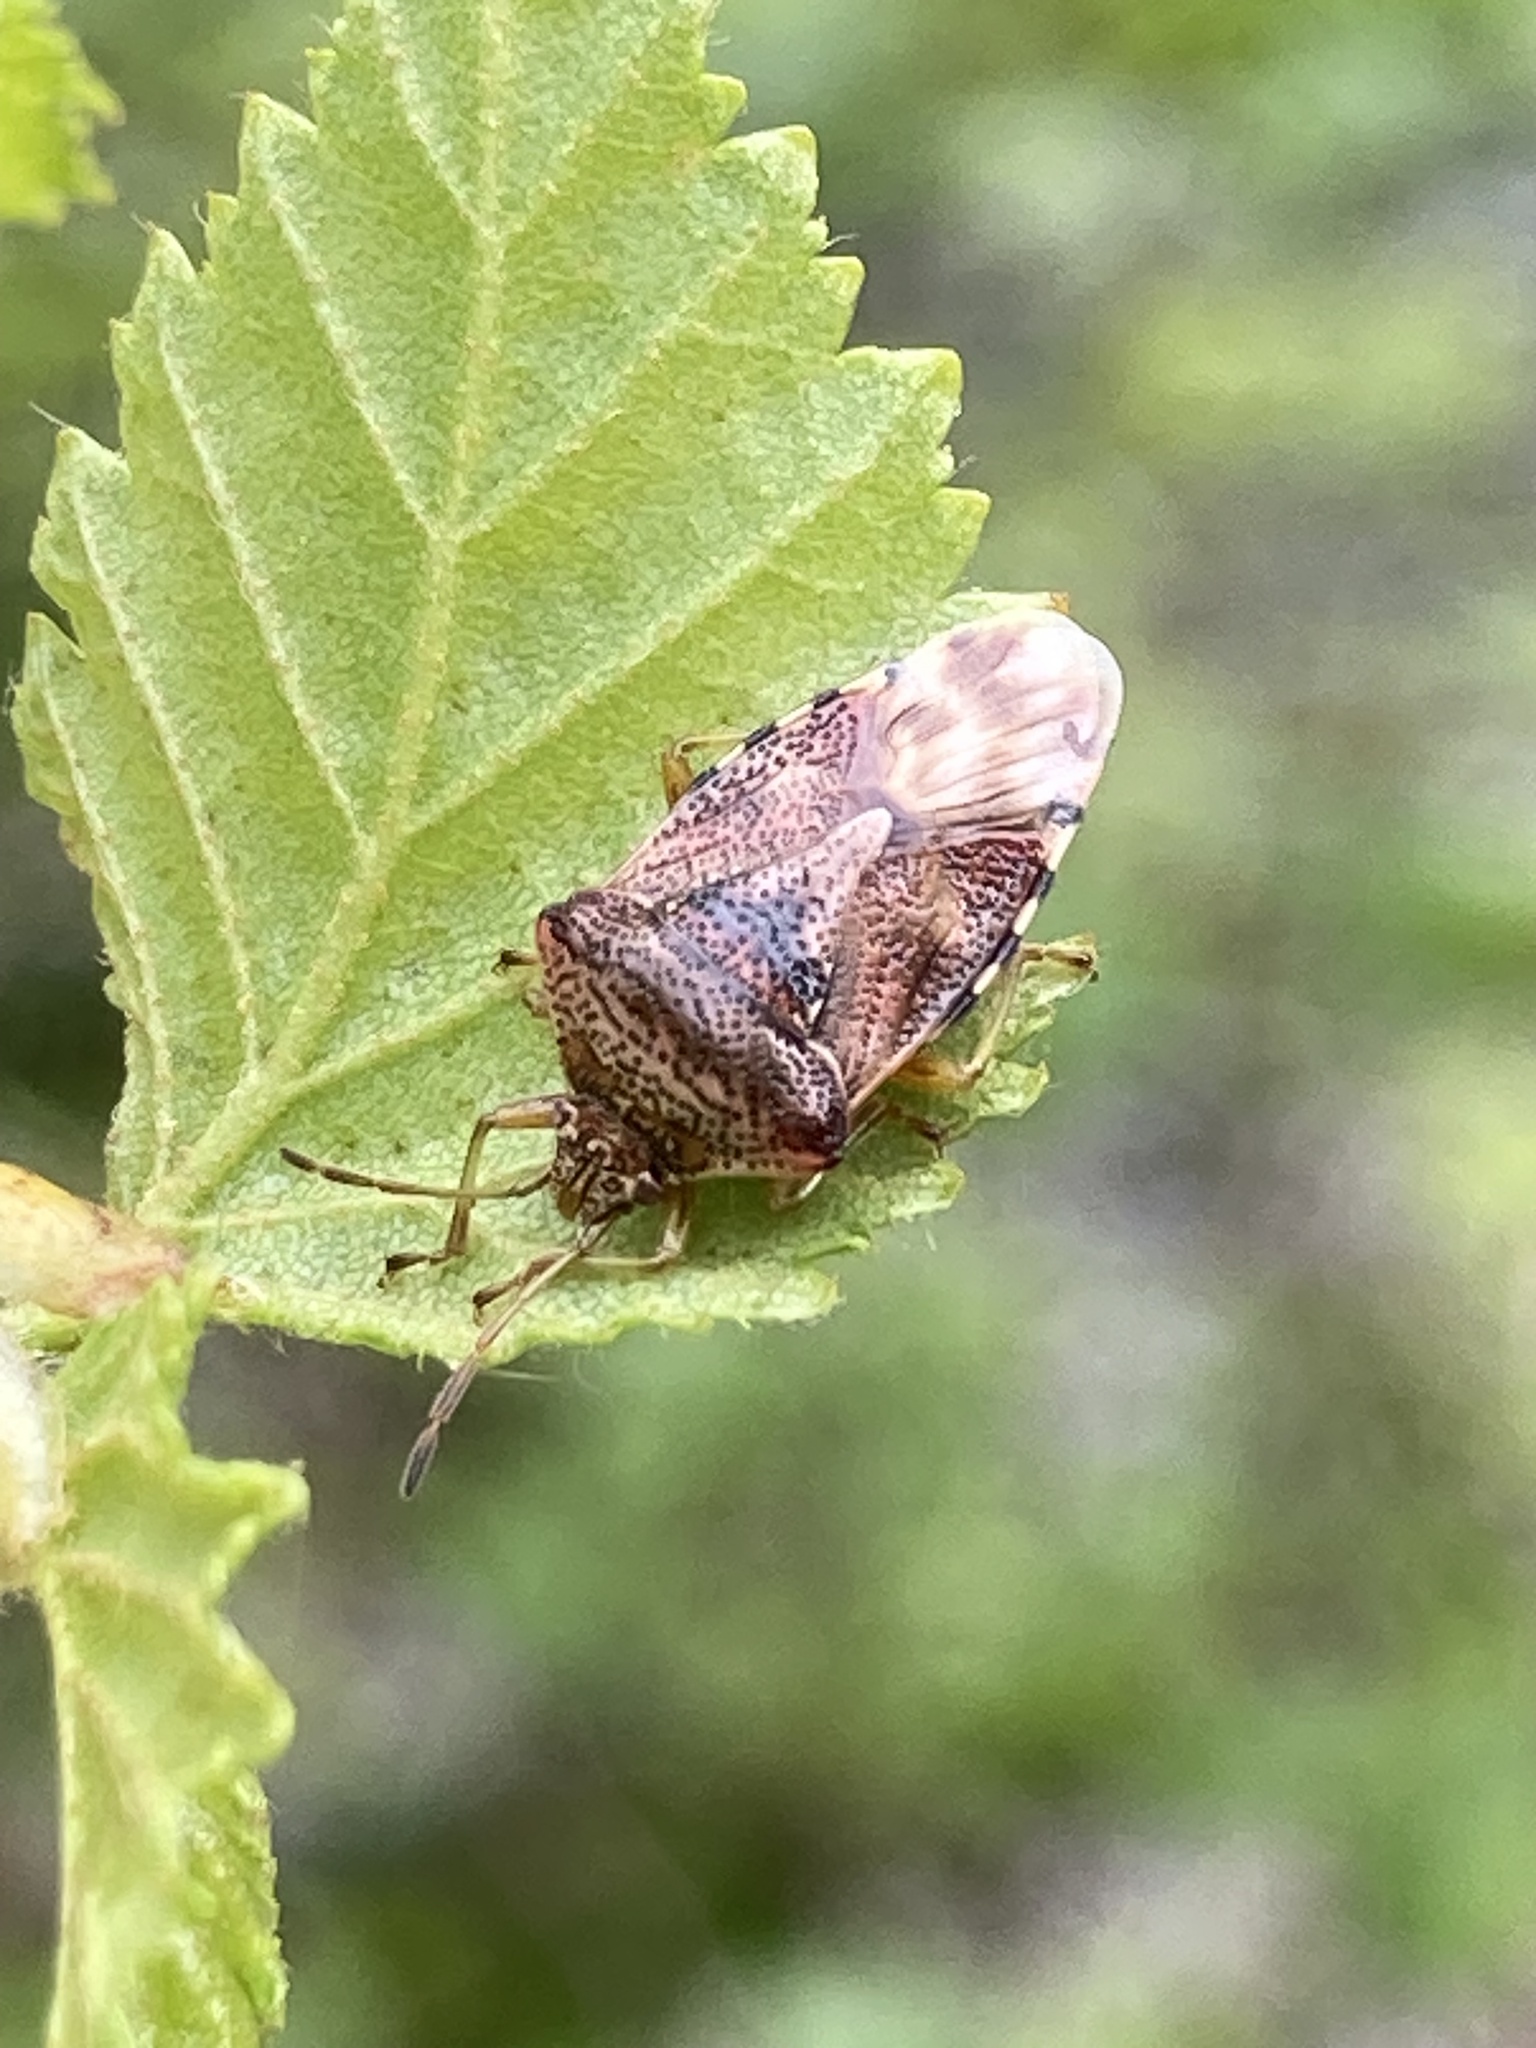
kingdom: Animalia
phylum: Arthropoda
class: Insecta
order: Hemiptera
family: Acanthosomatidae
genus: Elasmucha
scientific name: Elasmucha grisea
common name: Parent bug
